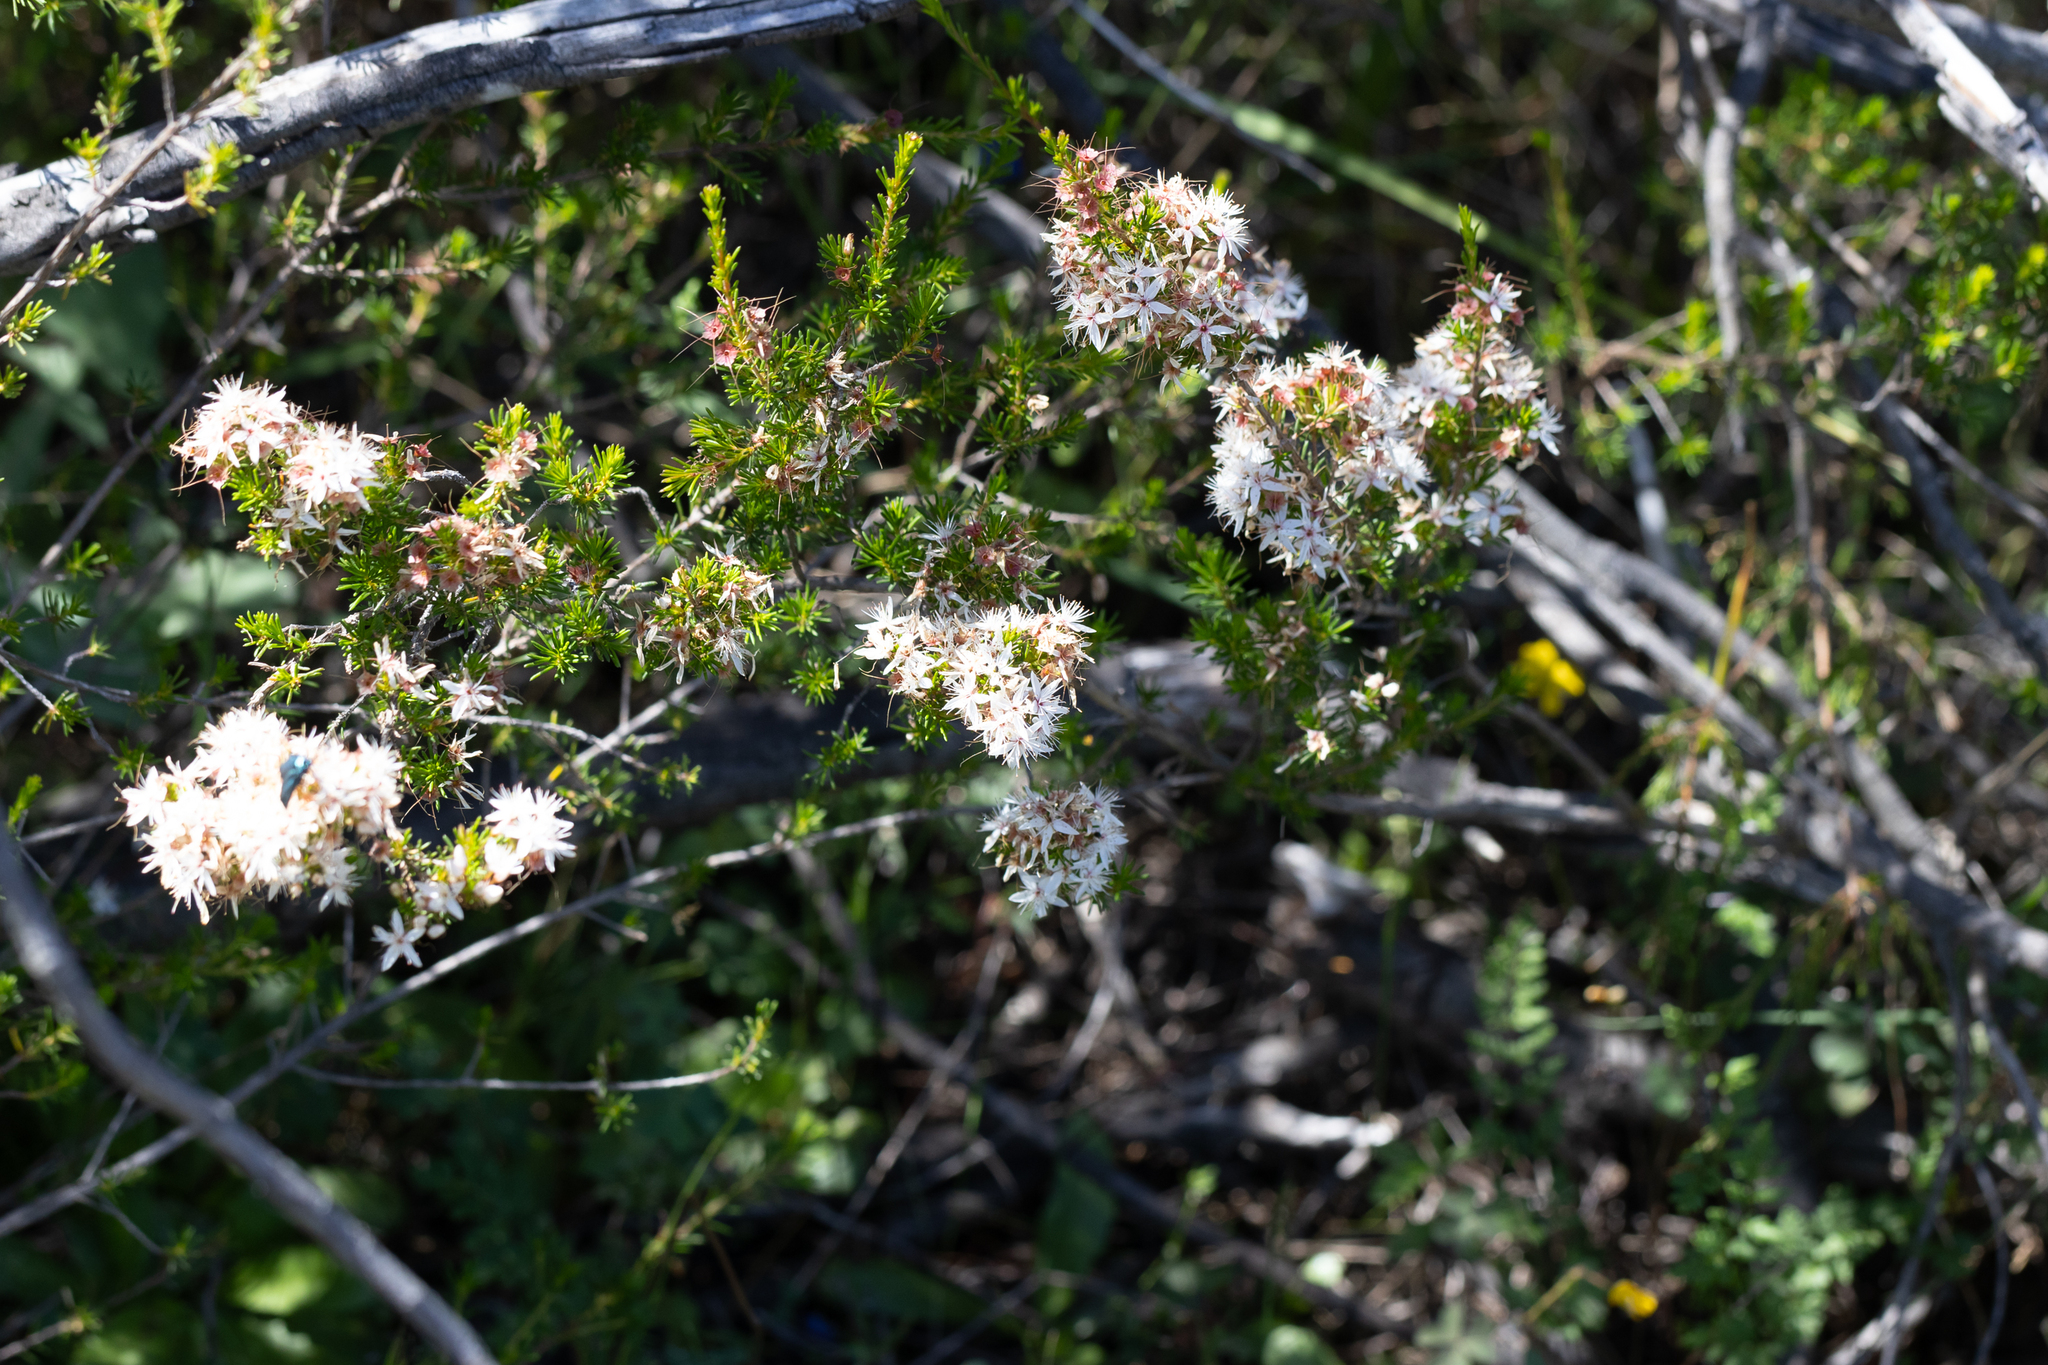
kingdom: Plantae
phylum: Tracheophyta
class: Magnoliopsida
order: Myrtales
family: Myrtaceae
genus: Calytrix
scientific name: Calytrix tetragona
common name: Common fringe myrtle
